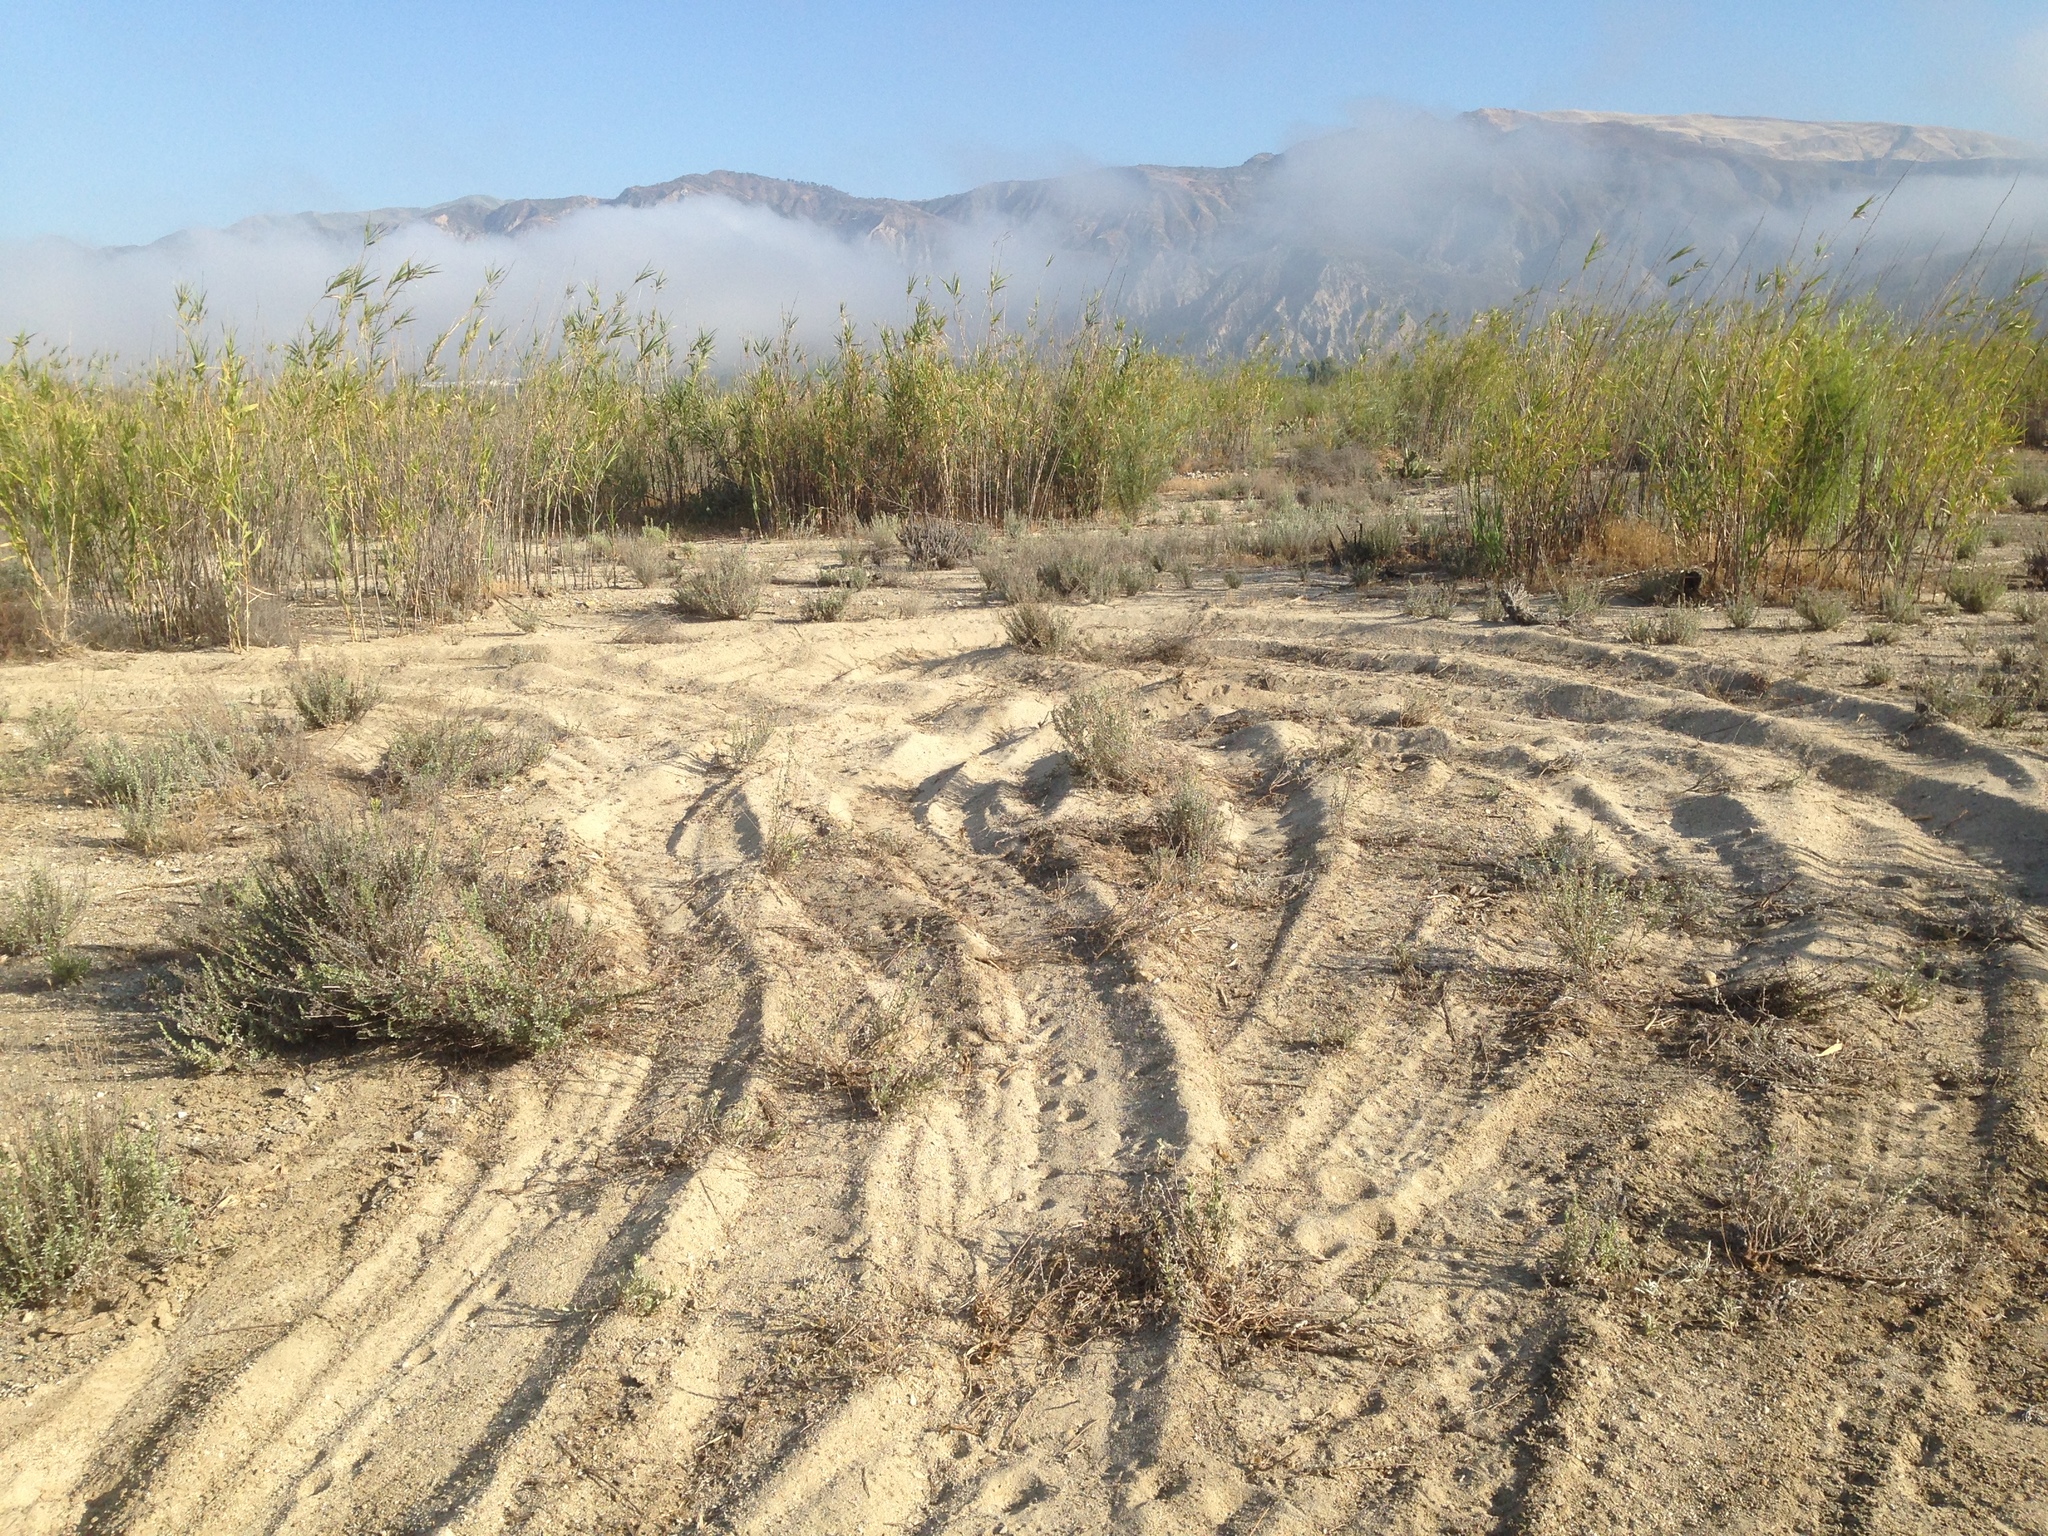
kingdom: Plantae
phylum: Tracheophyta
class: Liliopsida
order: Poales
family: Poaceae
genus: Arundo
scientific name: Arundo donax
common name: Giant reed
